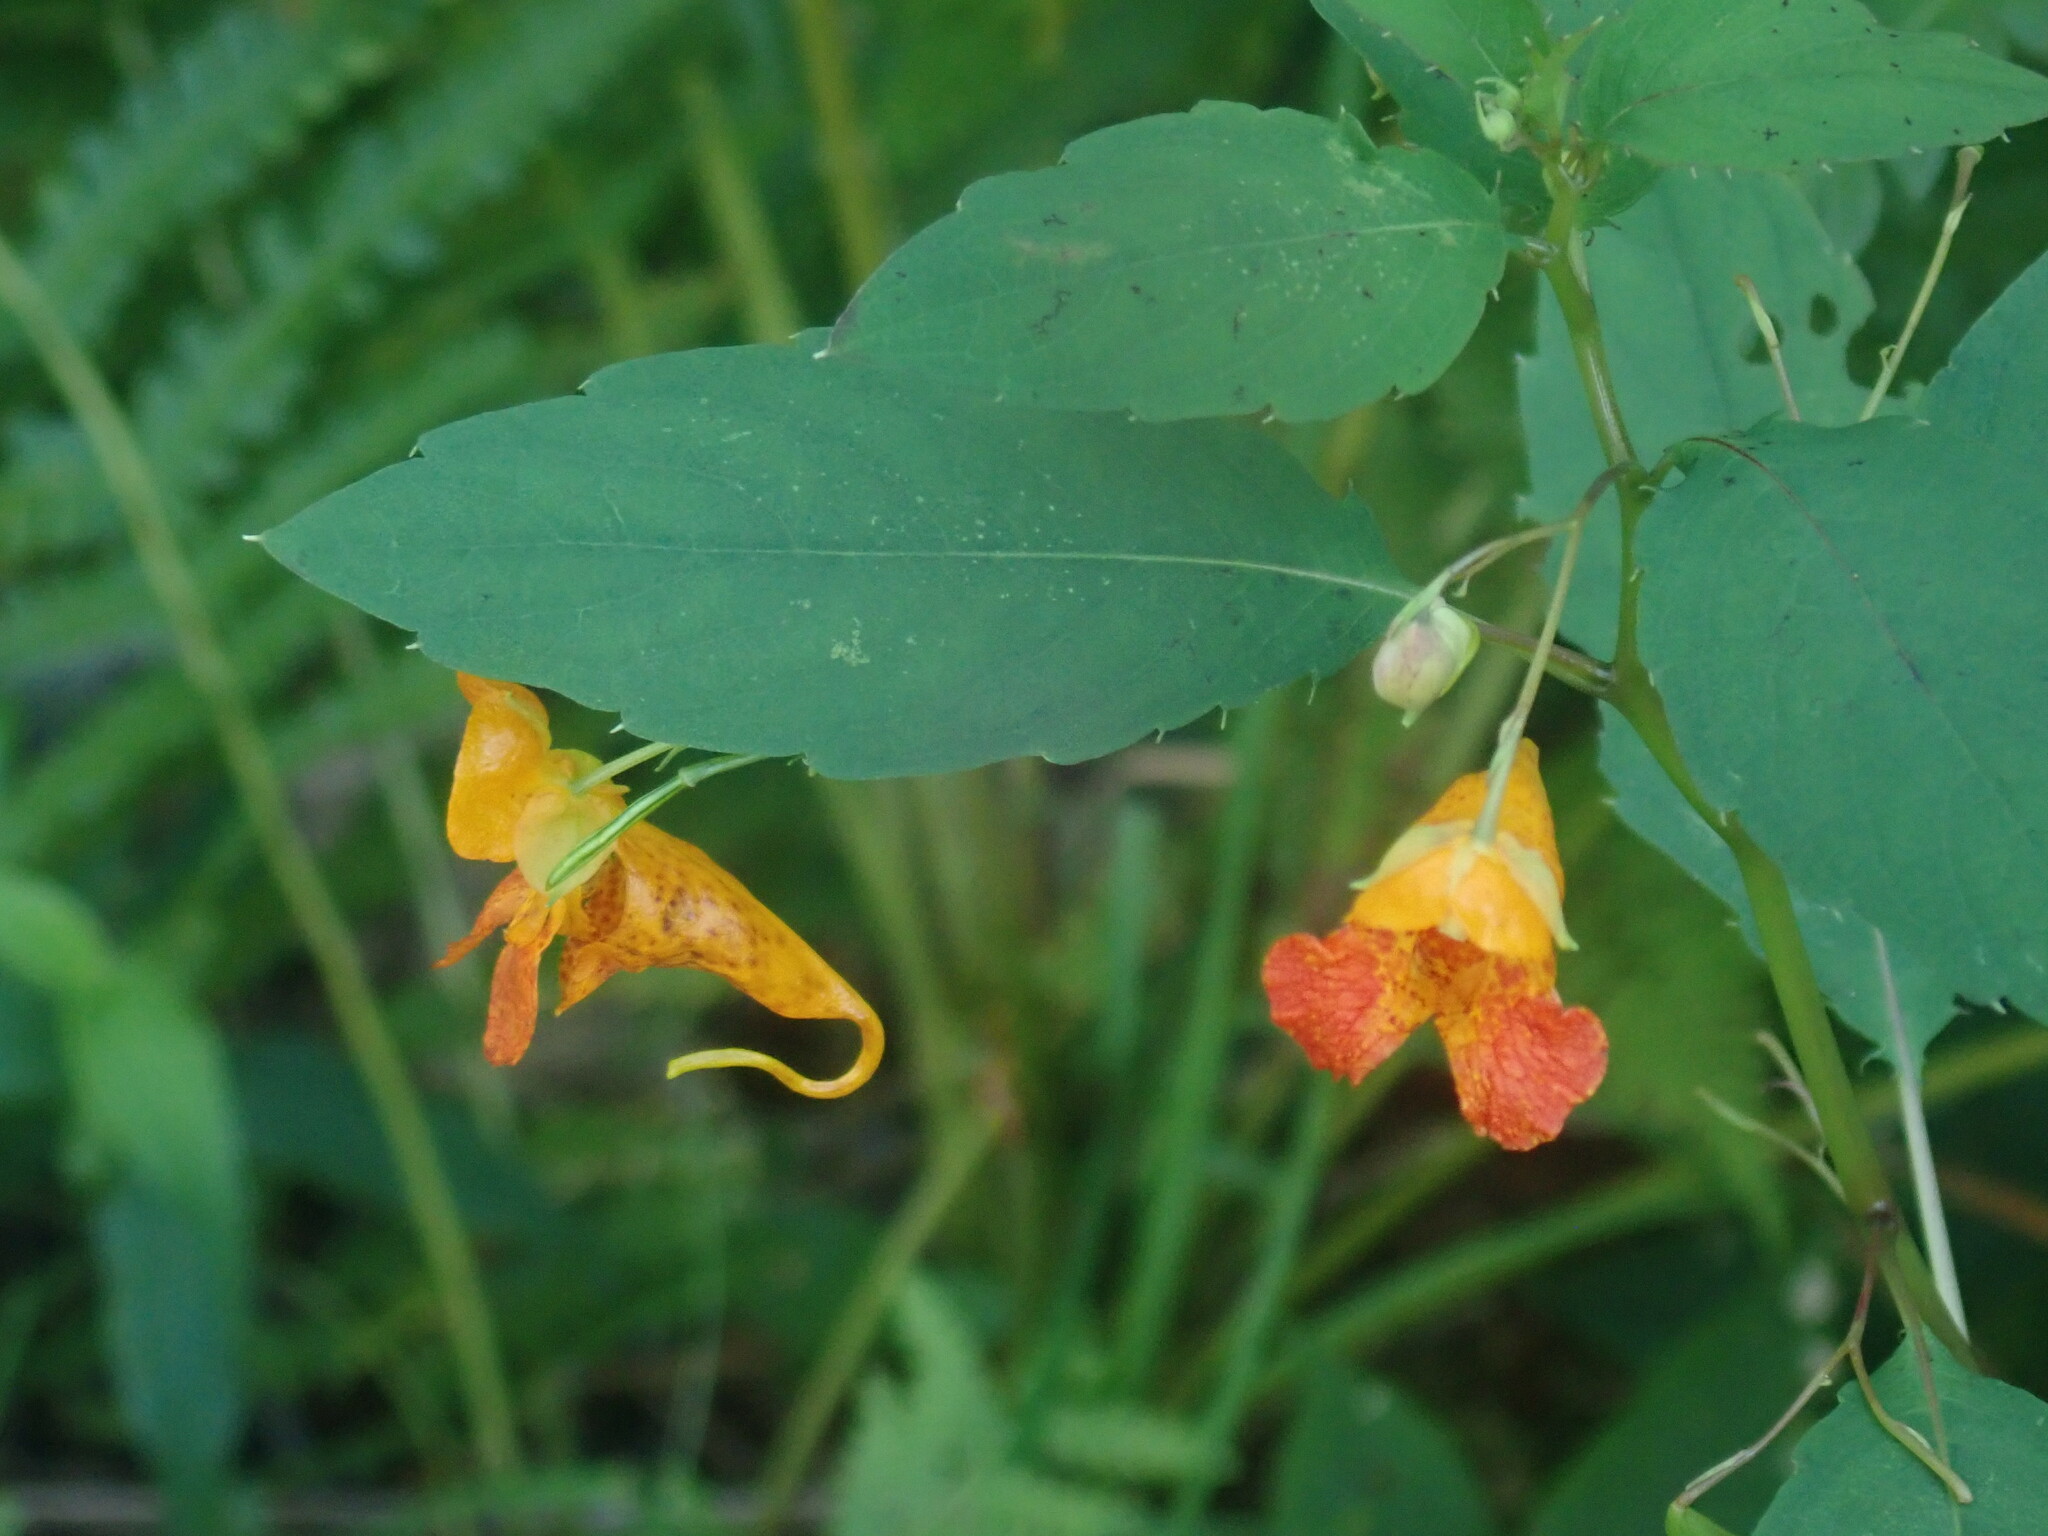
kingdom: Plantae
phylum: Tracheophyta
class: Magnoliopsida
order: Ericales
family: Balsaminaceae
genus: Impatiens
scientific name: Impatiens capensis
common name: Orange balsam
